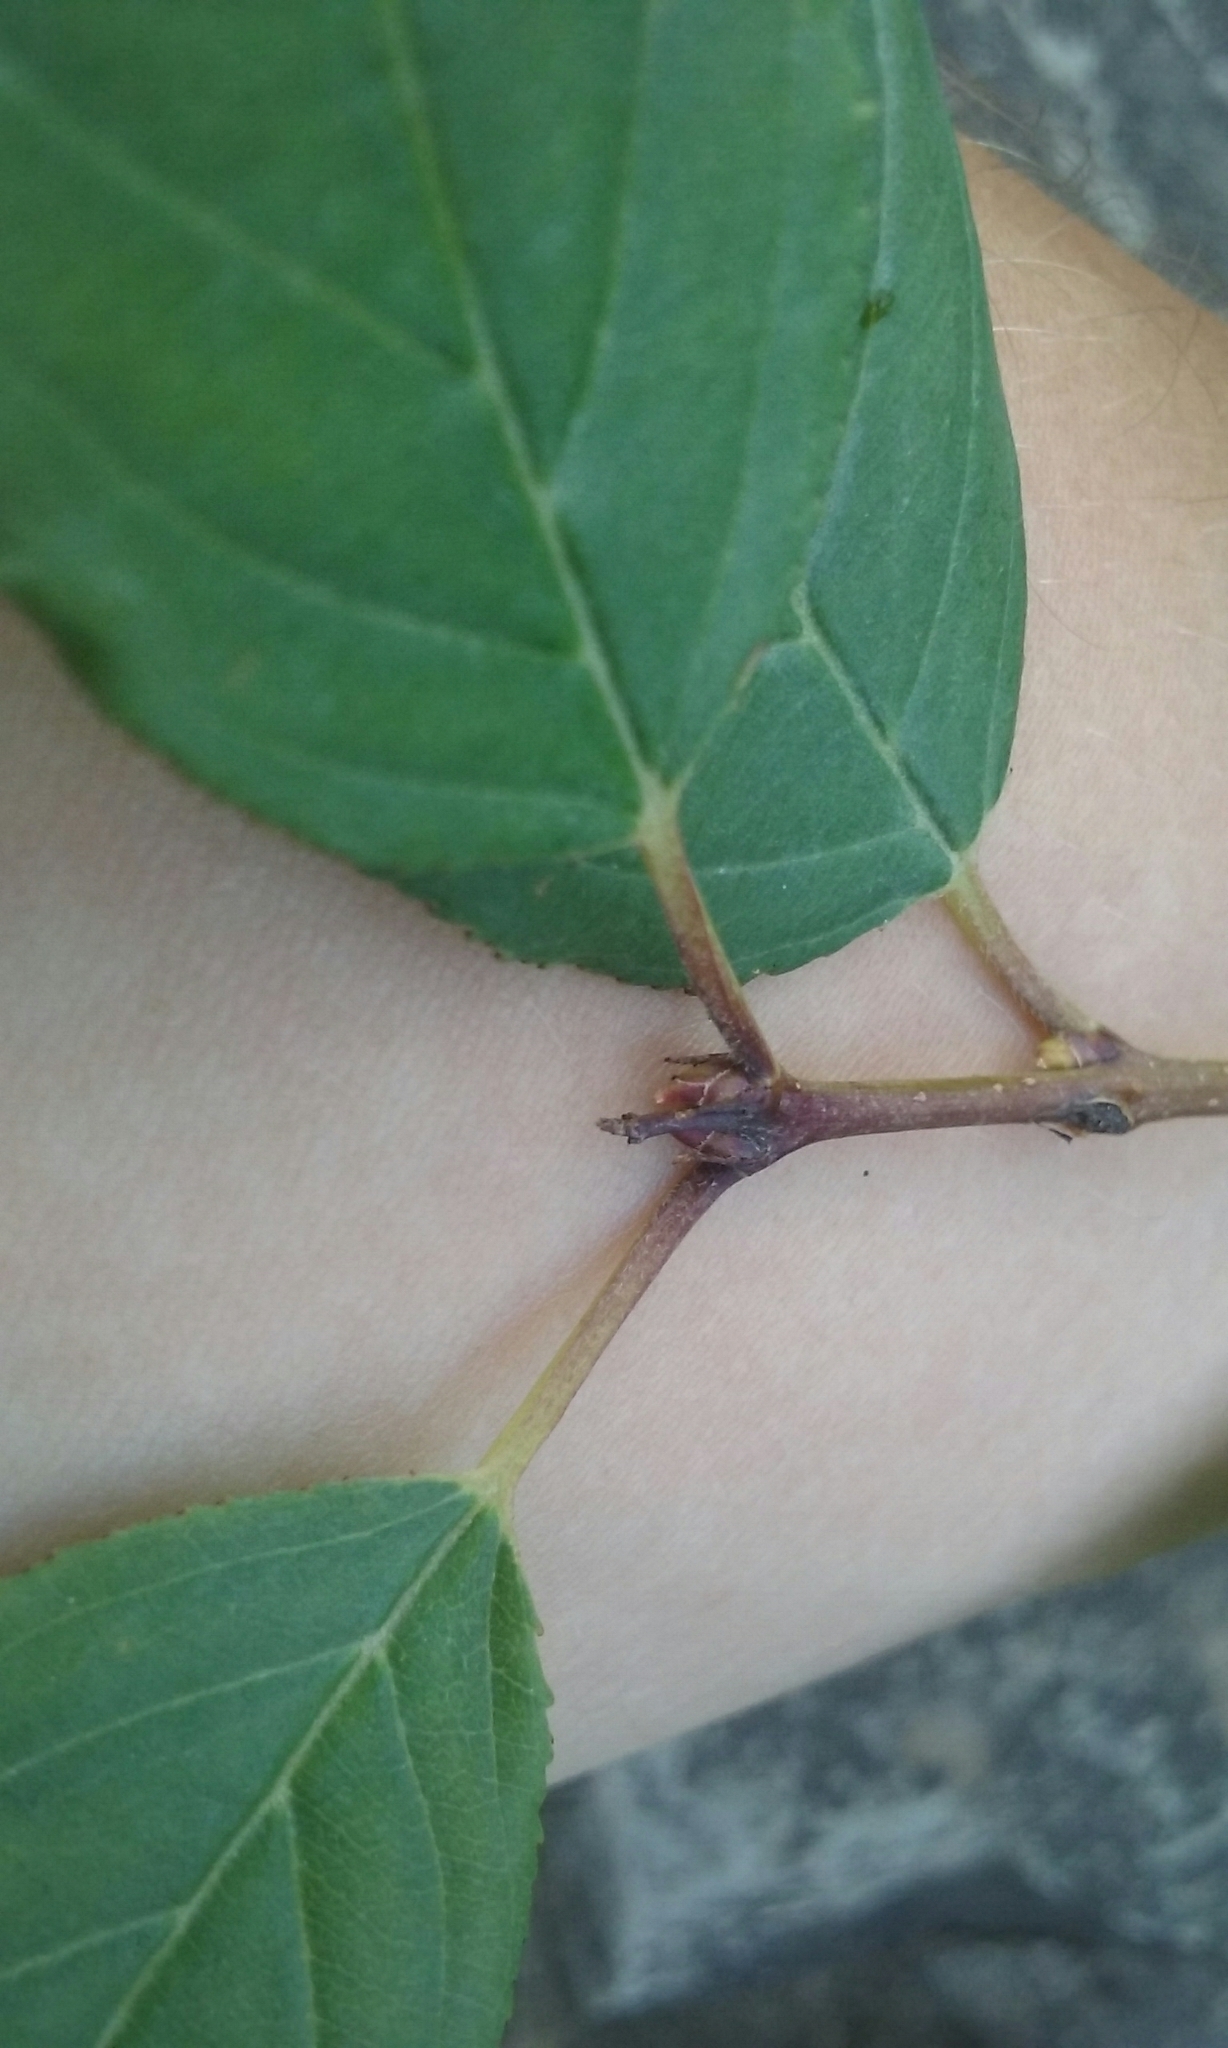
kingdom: Plantae
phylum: Tracheophyta
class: Magnoliopsida
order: Rosales
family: Rhamnaceae
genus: Rhamnus
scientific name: Rhamnus cathartica
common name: Common buckthorn
